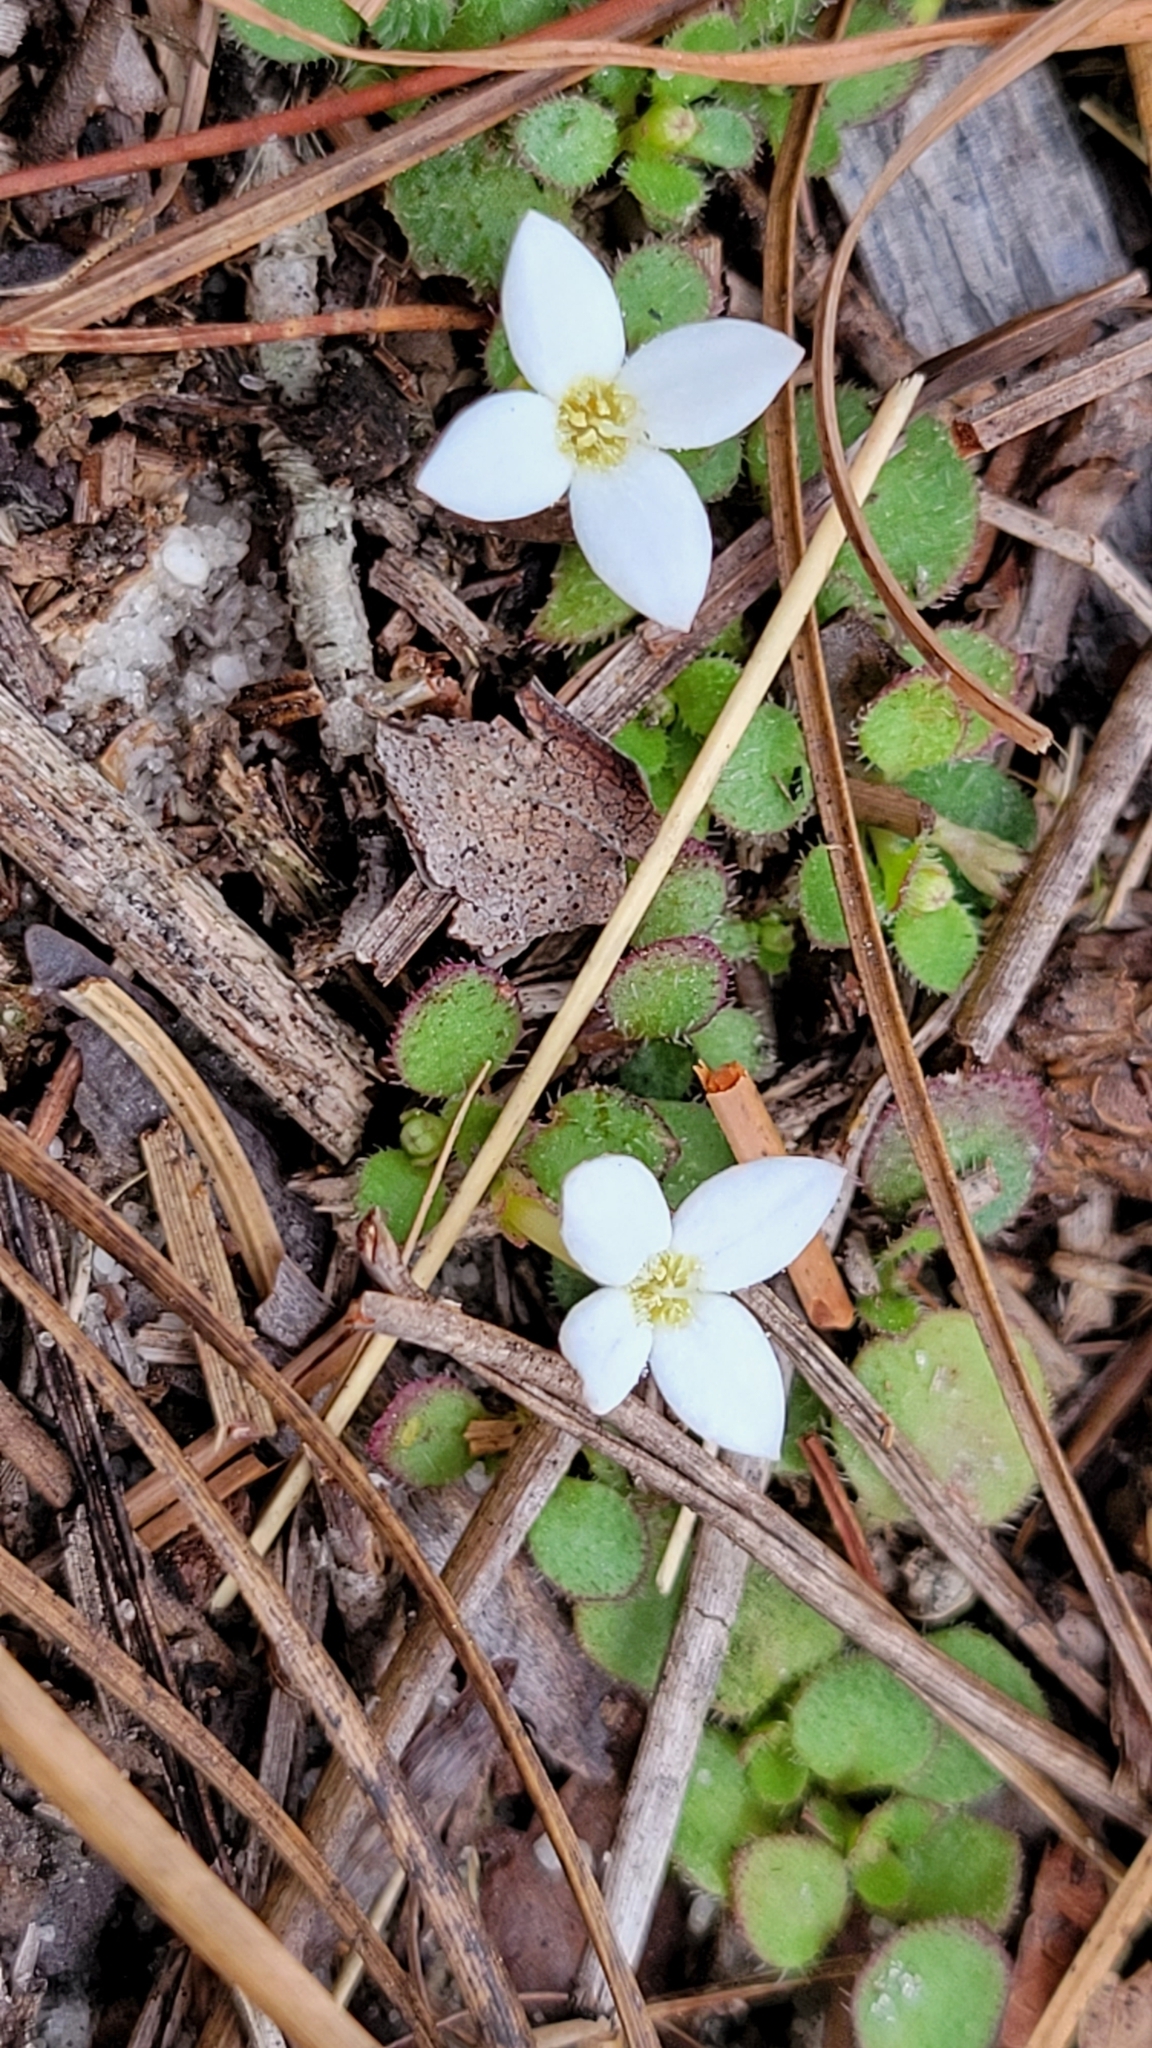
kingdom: Plantae
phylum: Tracheophyta
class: Magnoliopsida
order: Gentianales
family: Rubiaceae
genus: Houstonia
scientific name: Houstonia procumbens
